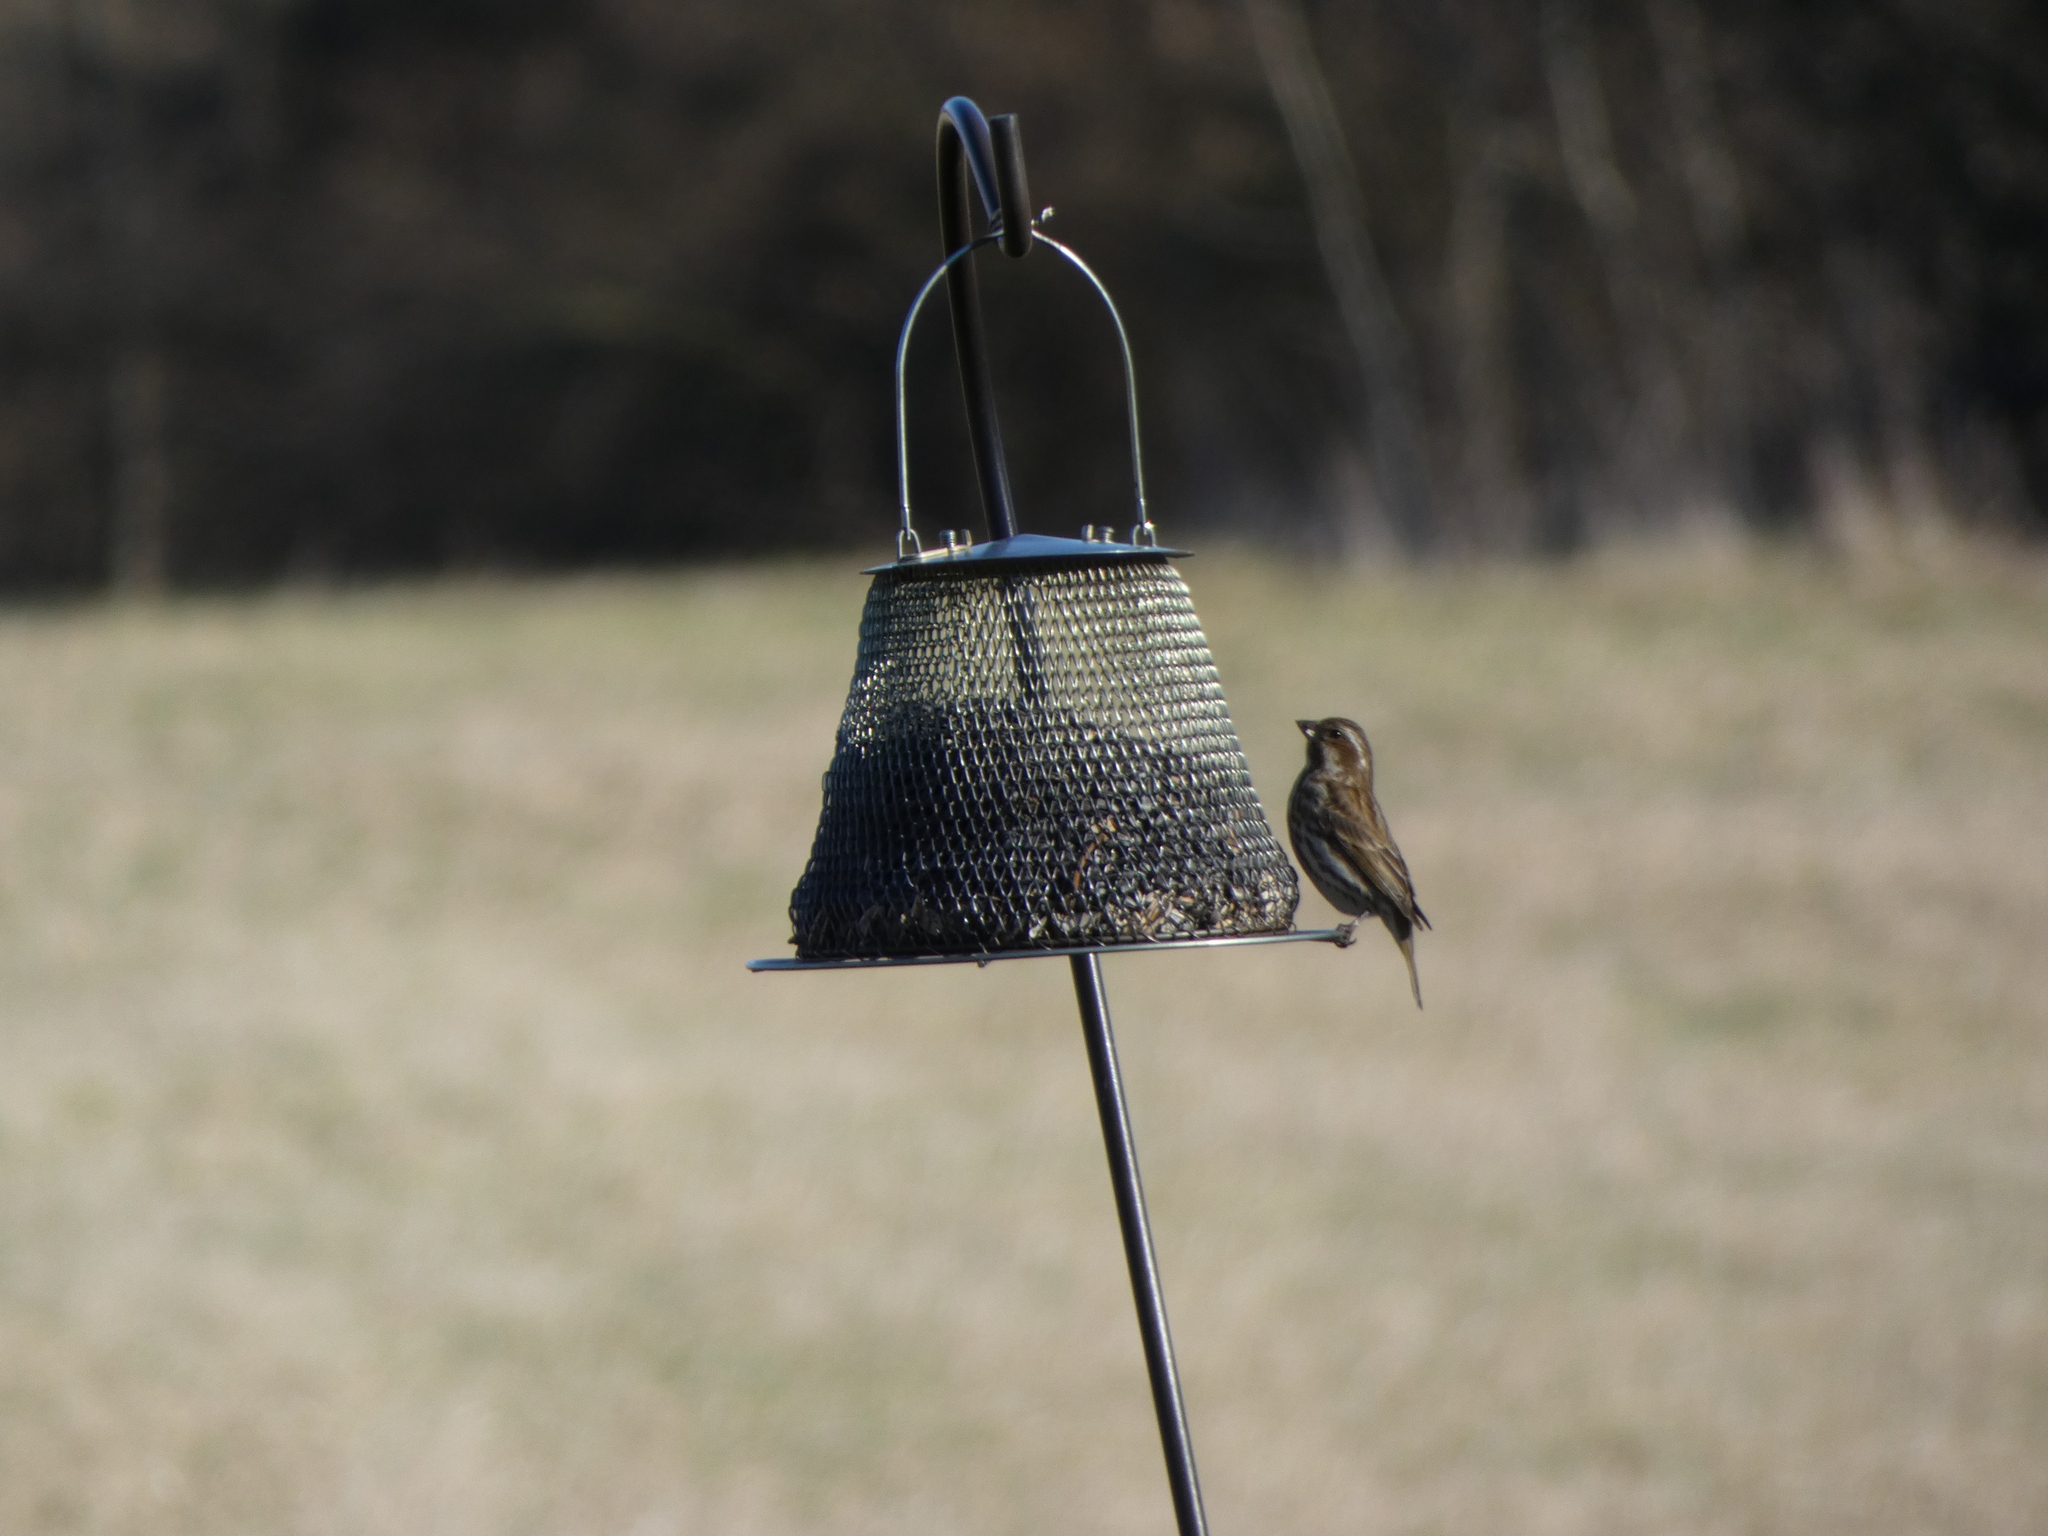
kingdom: Animalia
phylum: Chordata
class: Aves
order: Passeriformes
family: Fringillidae
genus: Haemorhous
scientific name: Haemorhous purpureus
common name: Purple finch
